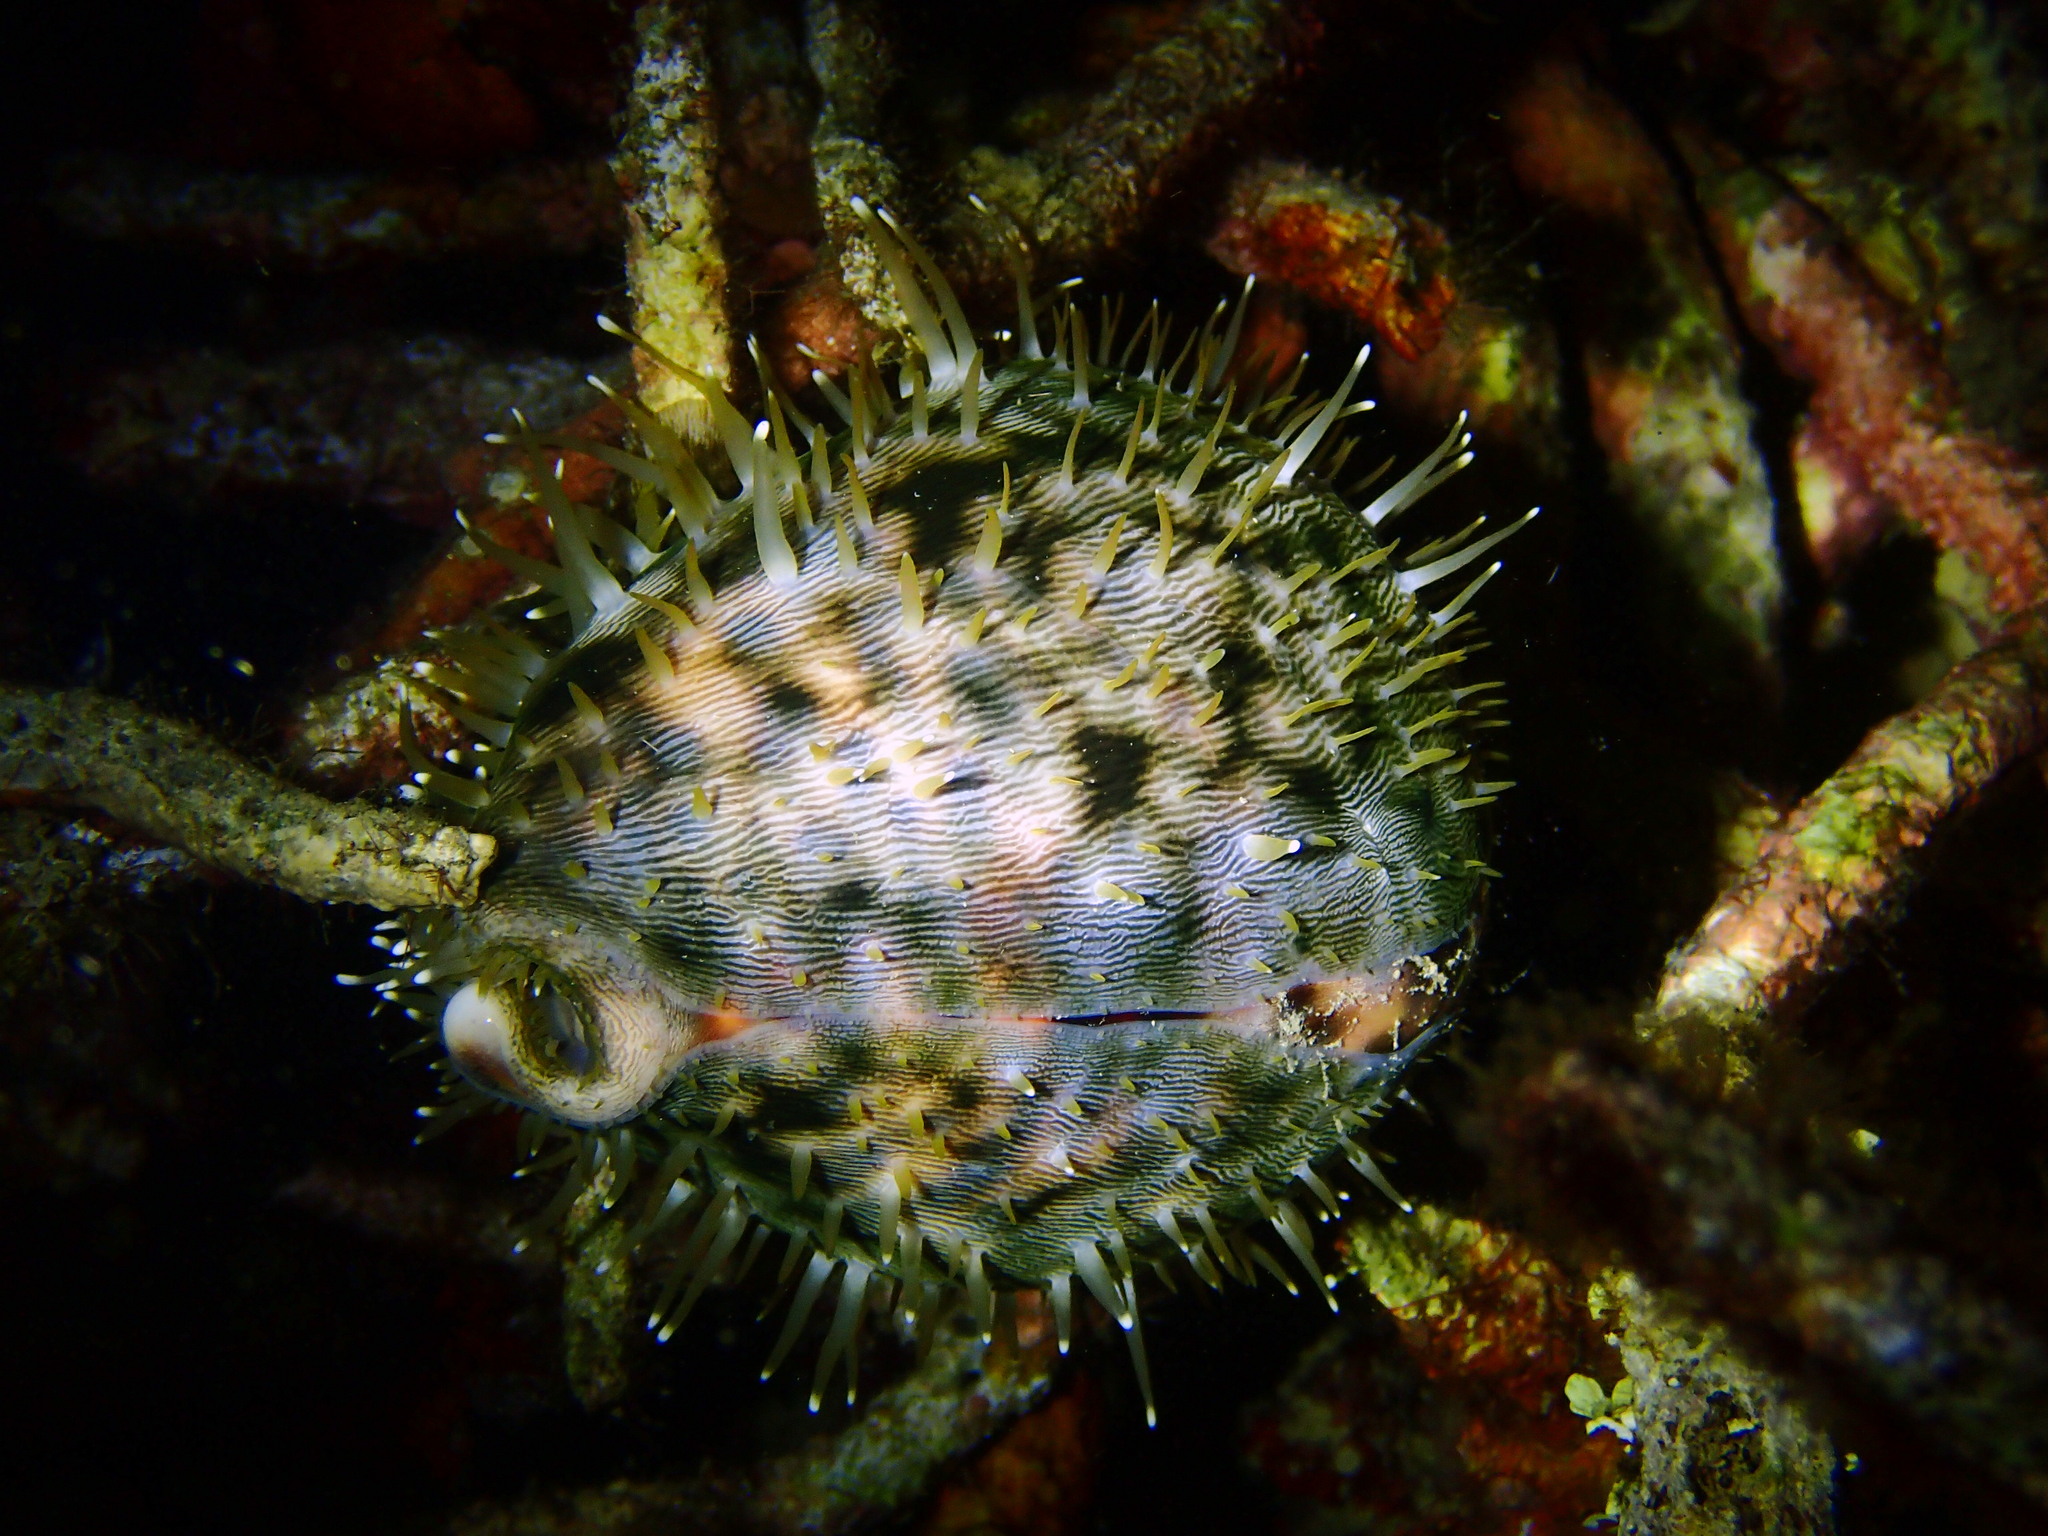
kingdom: Animalia
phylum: Mollusca
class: Gastropoda
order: Littorinimorpha
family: Cypraeidae
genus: Cypraea
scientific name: Cypraea tigris
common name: Tiger cowrie
